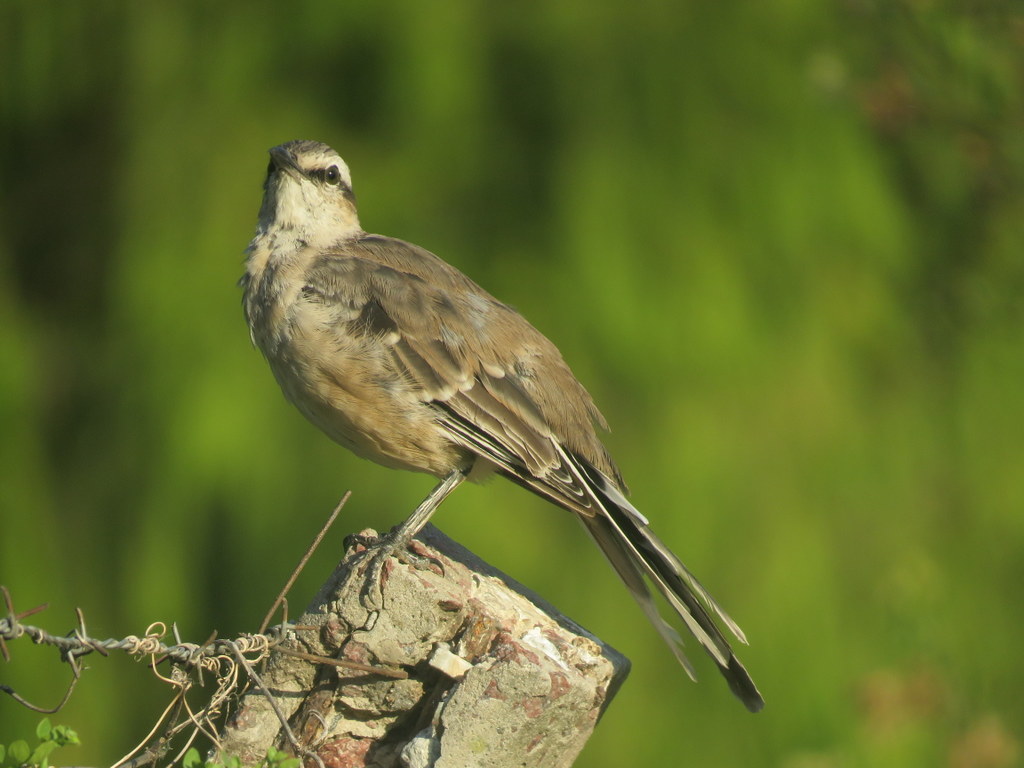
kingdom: Animalia
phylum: Chordata
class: Aves
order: Passeriformes
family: Mimidae
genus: Mimus
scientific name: Mimus saturninus
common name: Chalk-browed mockingbird
